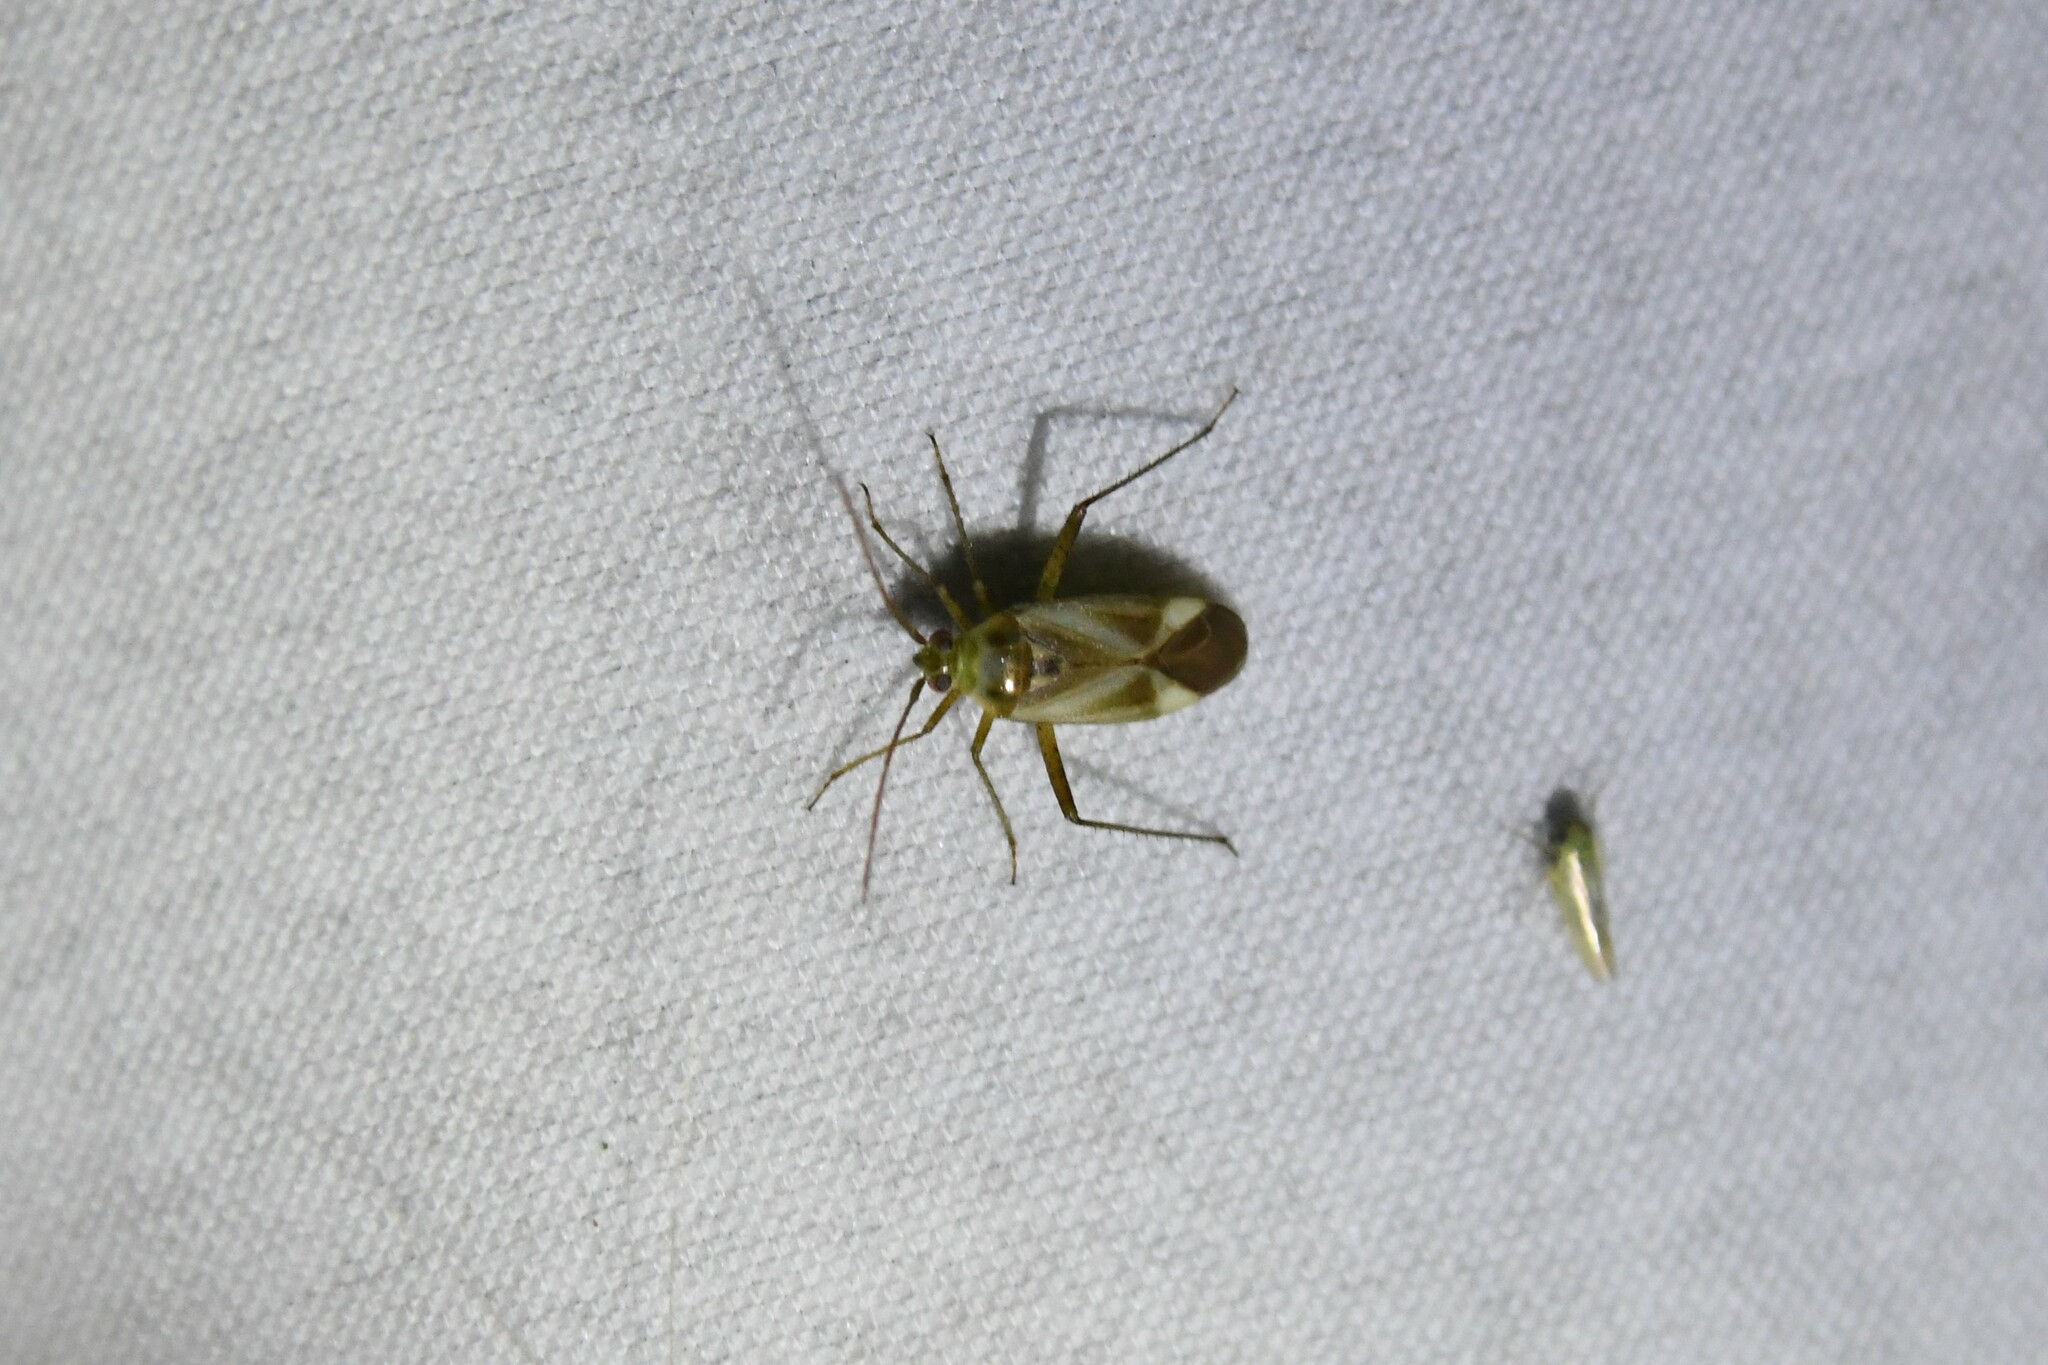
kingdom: Animalia
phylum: Arthropoda
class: Insecta
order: Hemiptera
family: Miridae
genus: Adelphocoris
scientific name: Adelphocoris lineolatus
